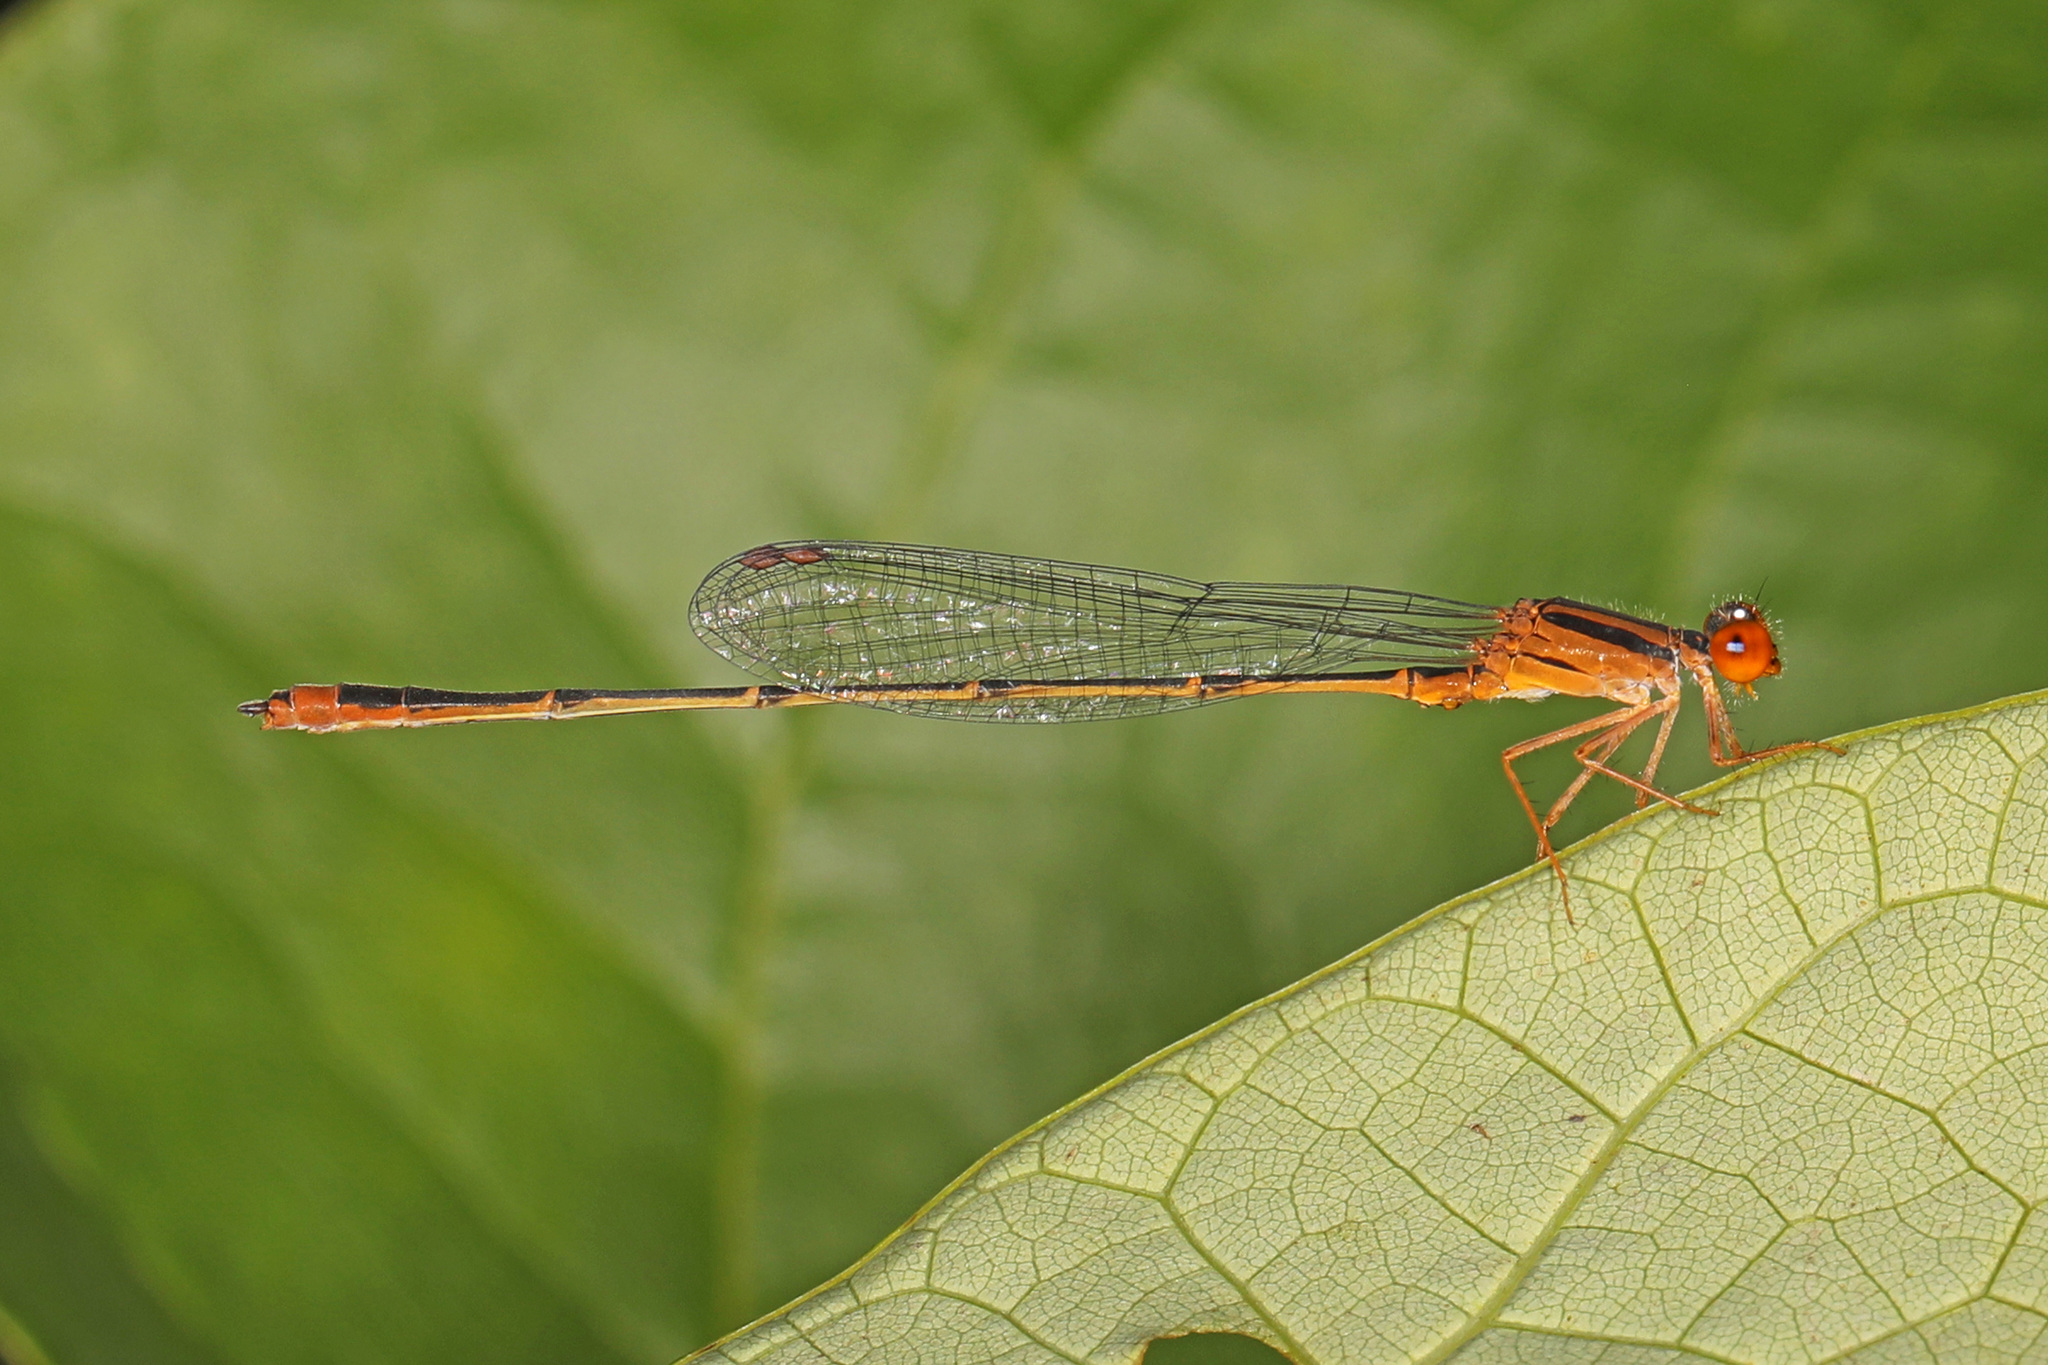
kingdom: Animalia
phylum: Arthropoda
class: Insecta
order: Odonata
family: Coenagrionidae
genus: Enallagma
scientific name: Enallagma signatum
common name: Orange bluet
